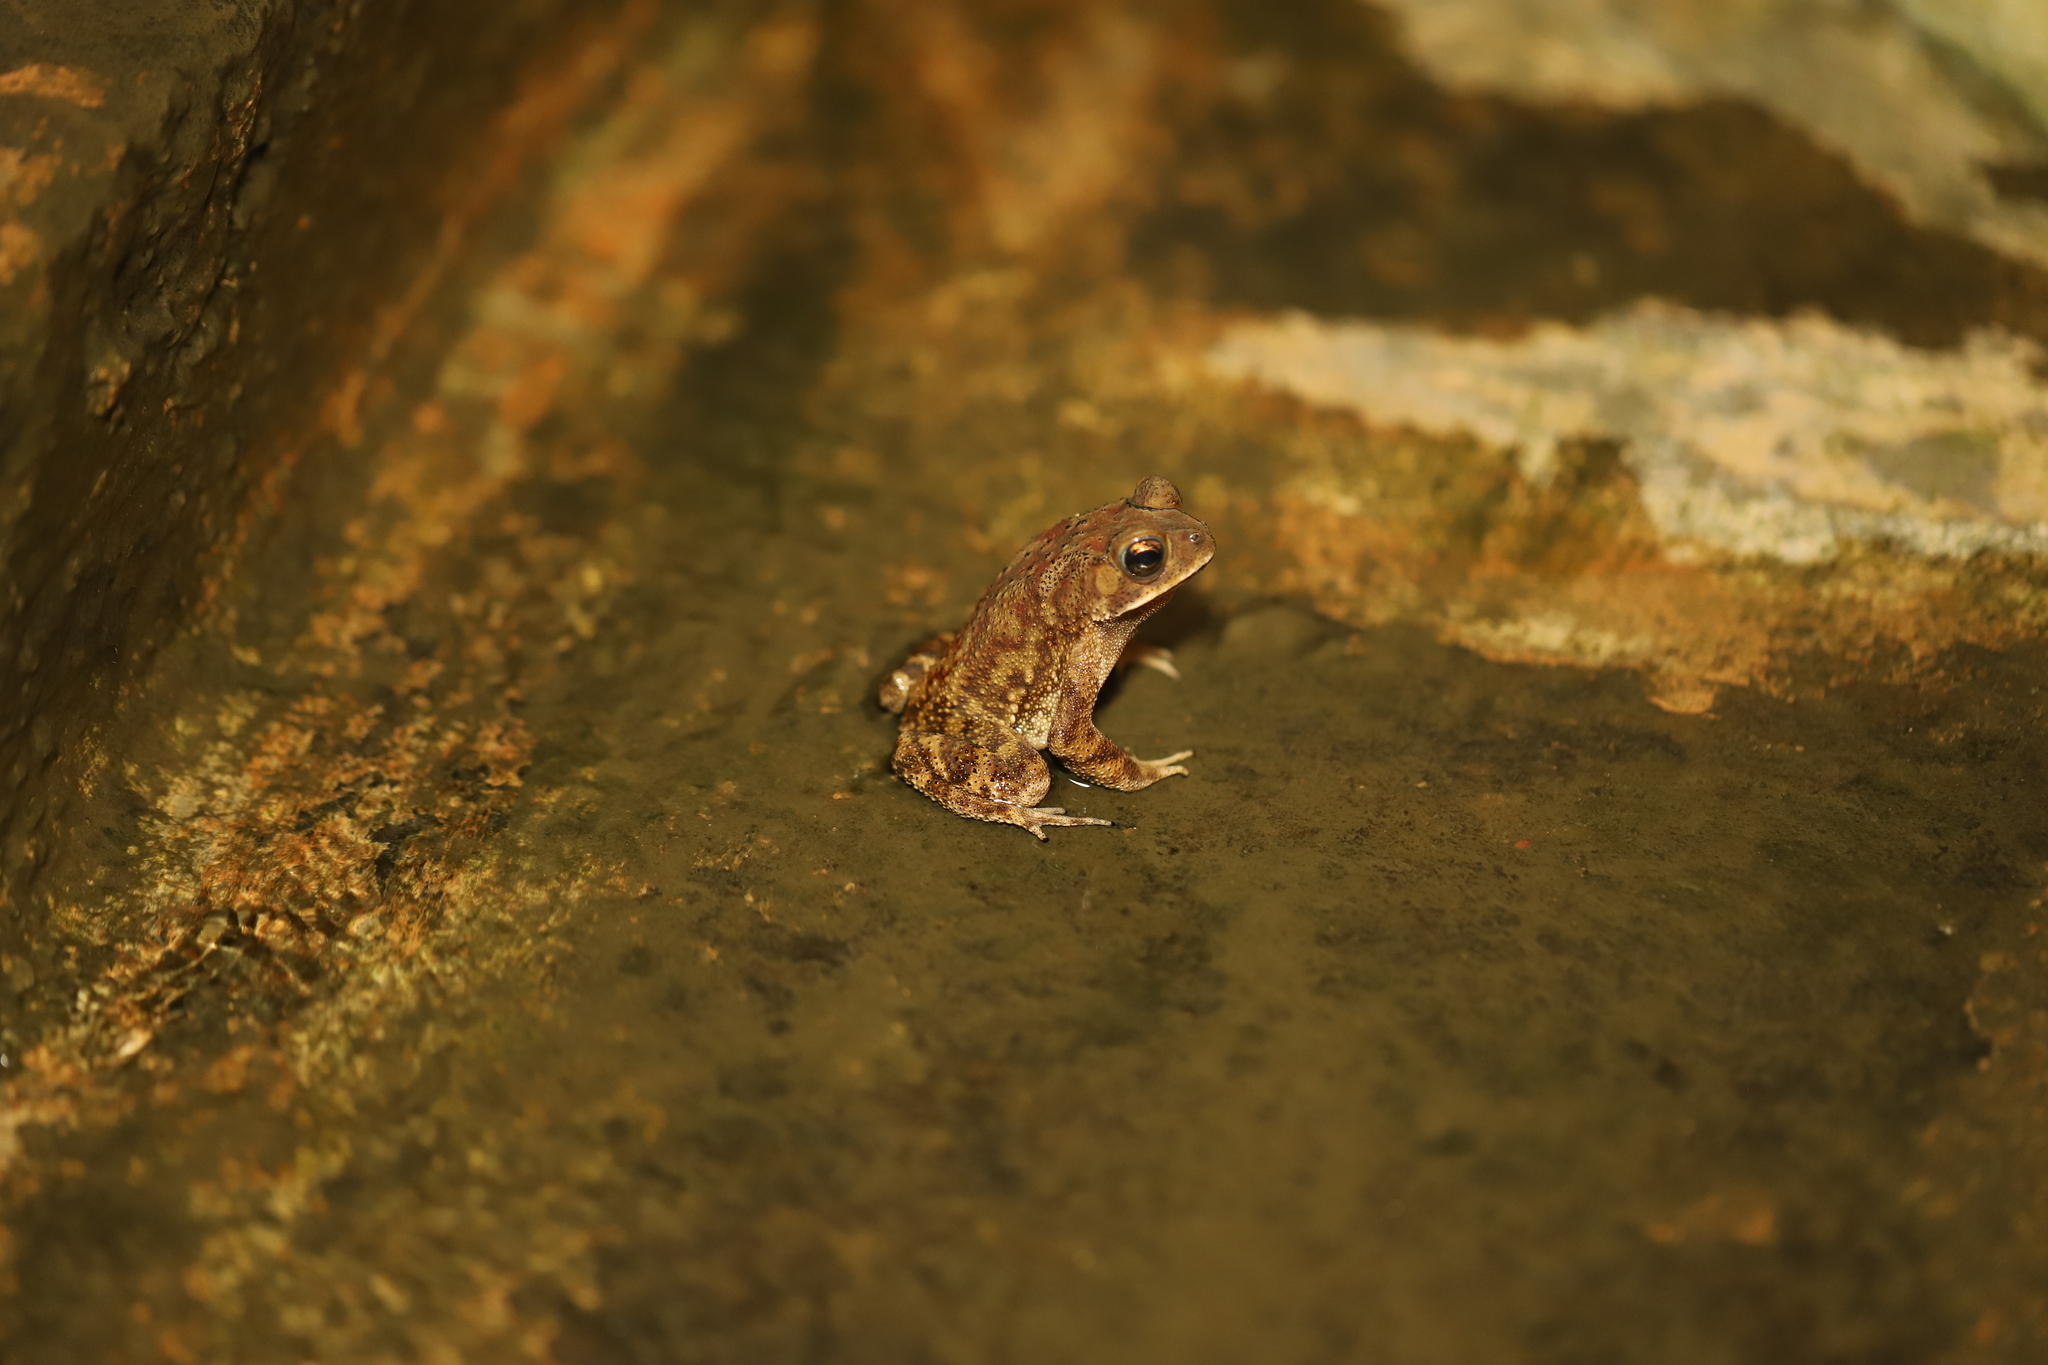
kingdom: Animalia
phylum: Chordata
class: Amphibia
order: Anura
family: Bufonidae
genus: Duttaphrynus
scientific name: Duttaphrynus melanostictus
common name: Common sunda toad
